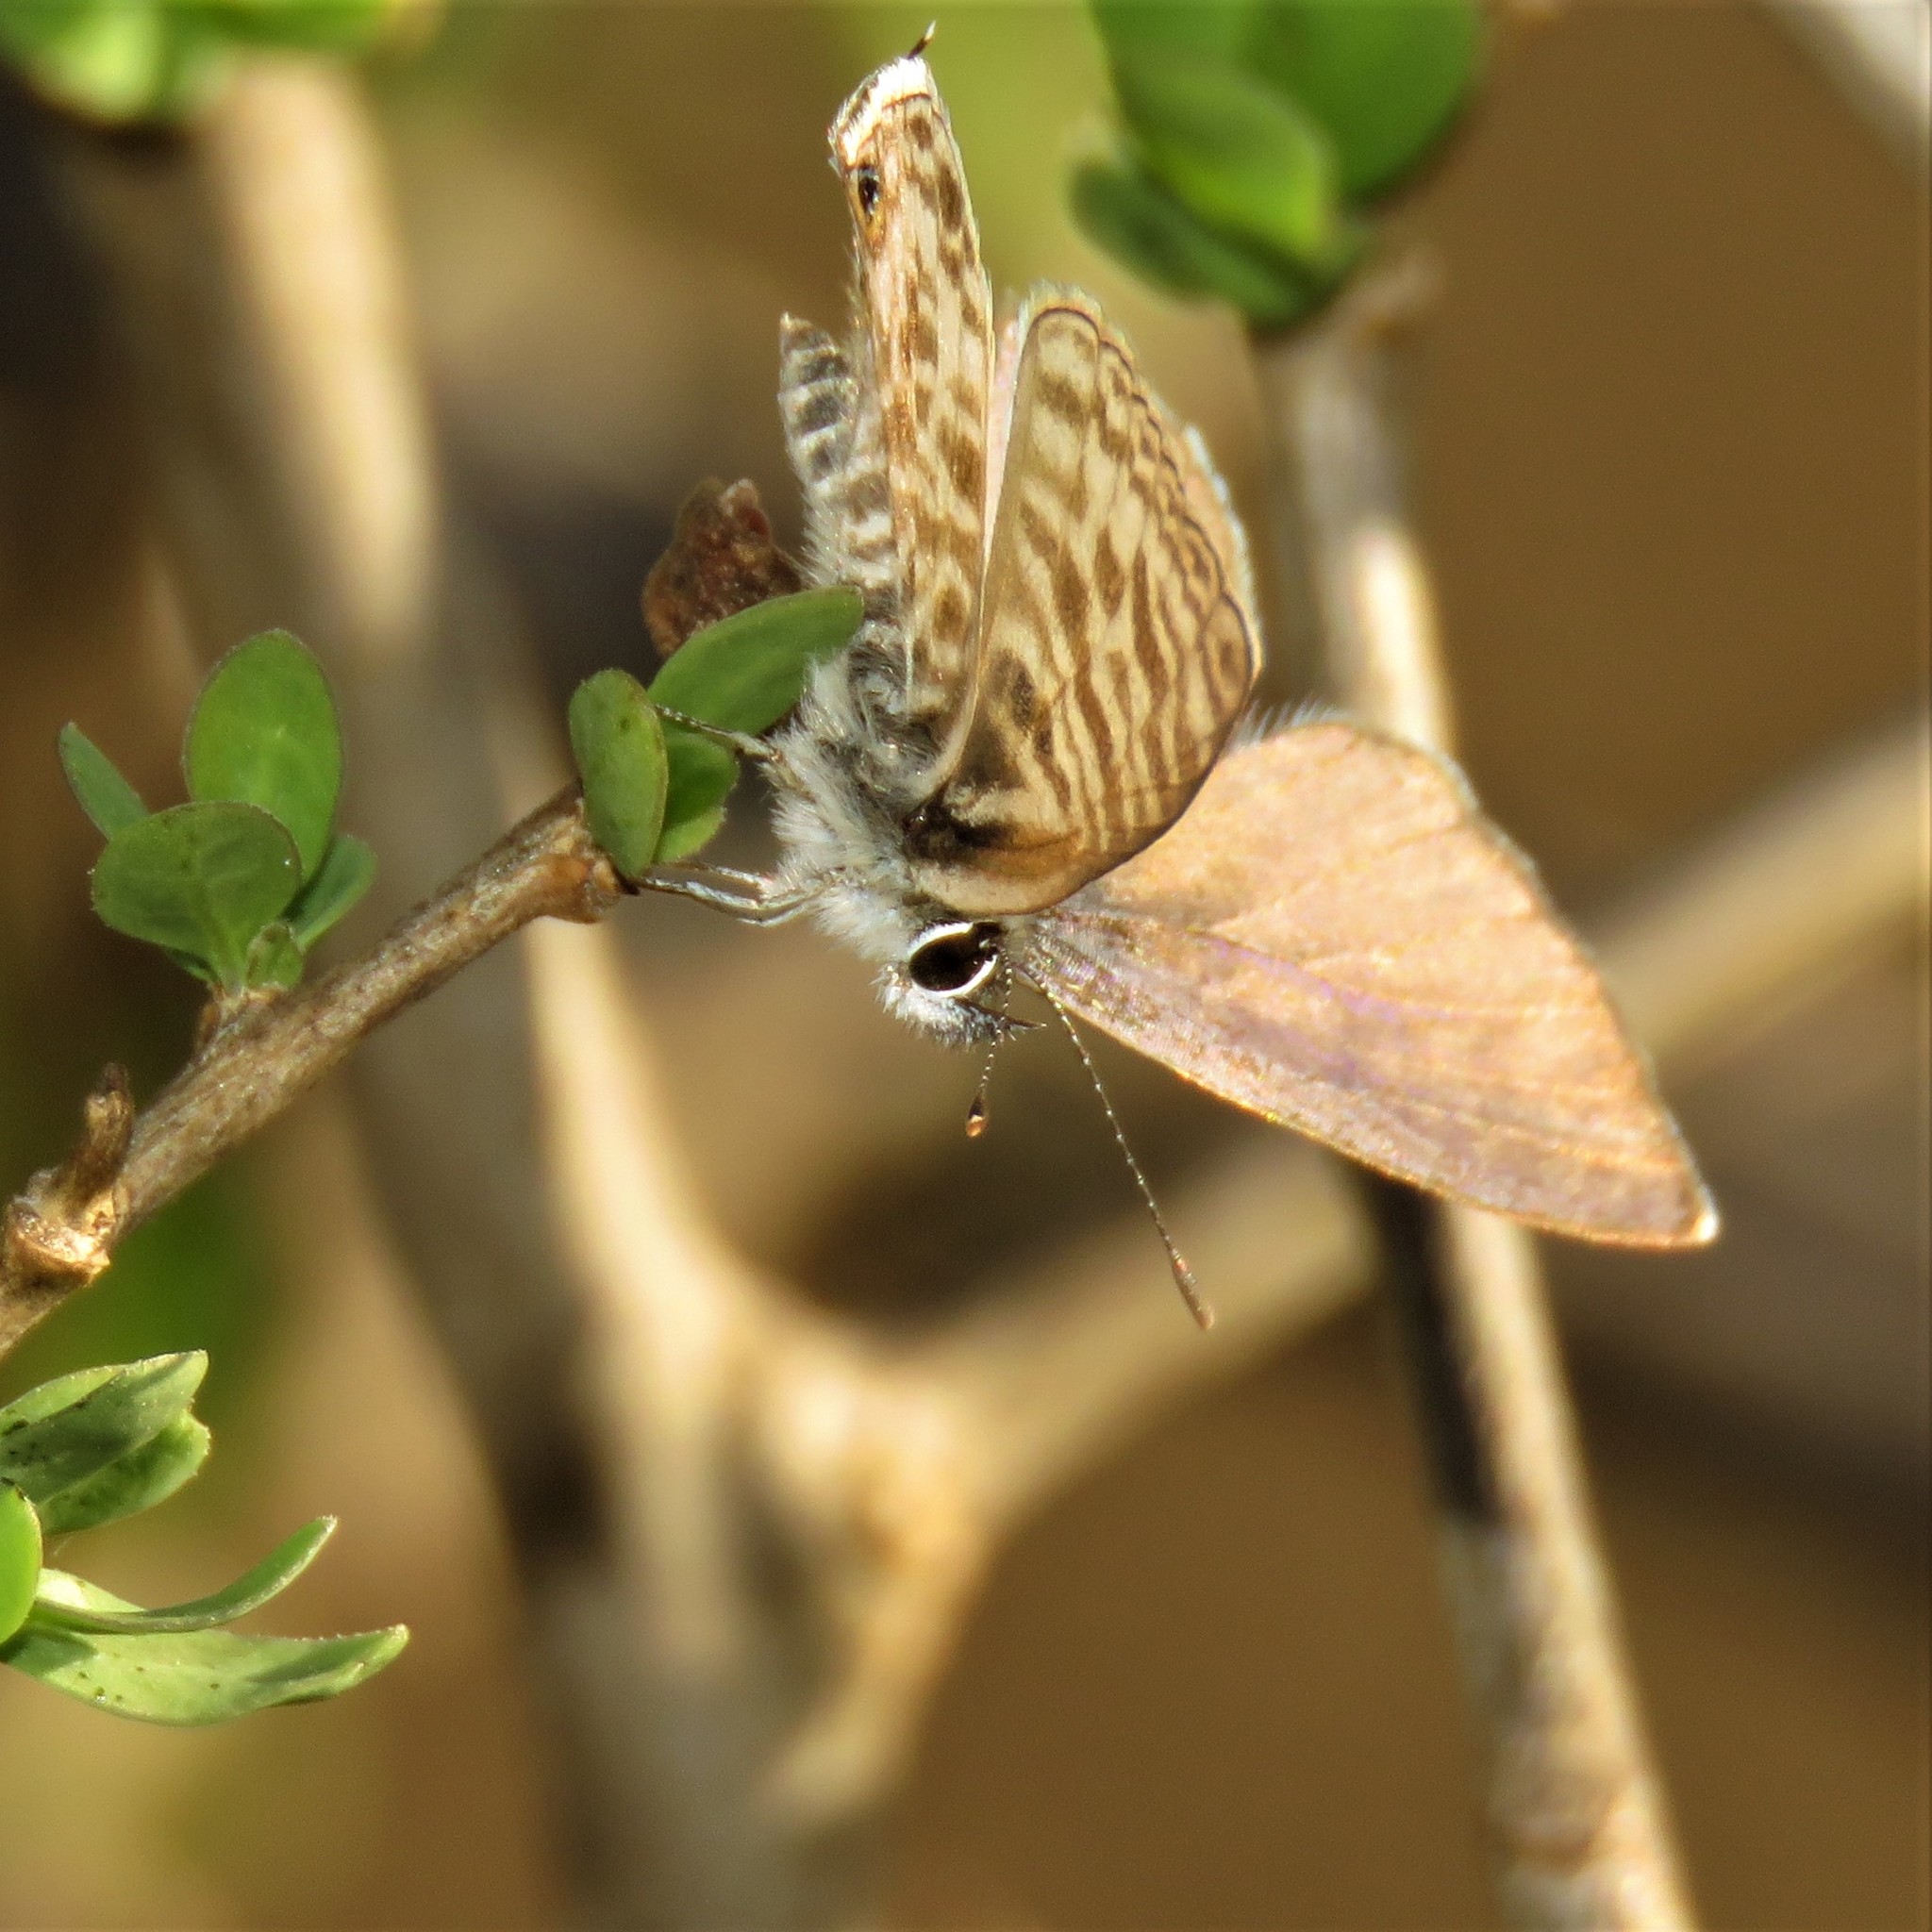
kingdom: Animalia
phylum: Arthropoda
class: Insecta
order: Lepidoptera
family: Lycaenidae
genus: Leptotes
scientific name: Leptotes
